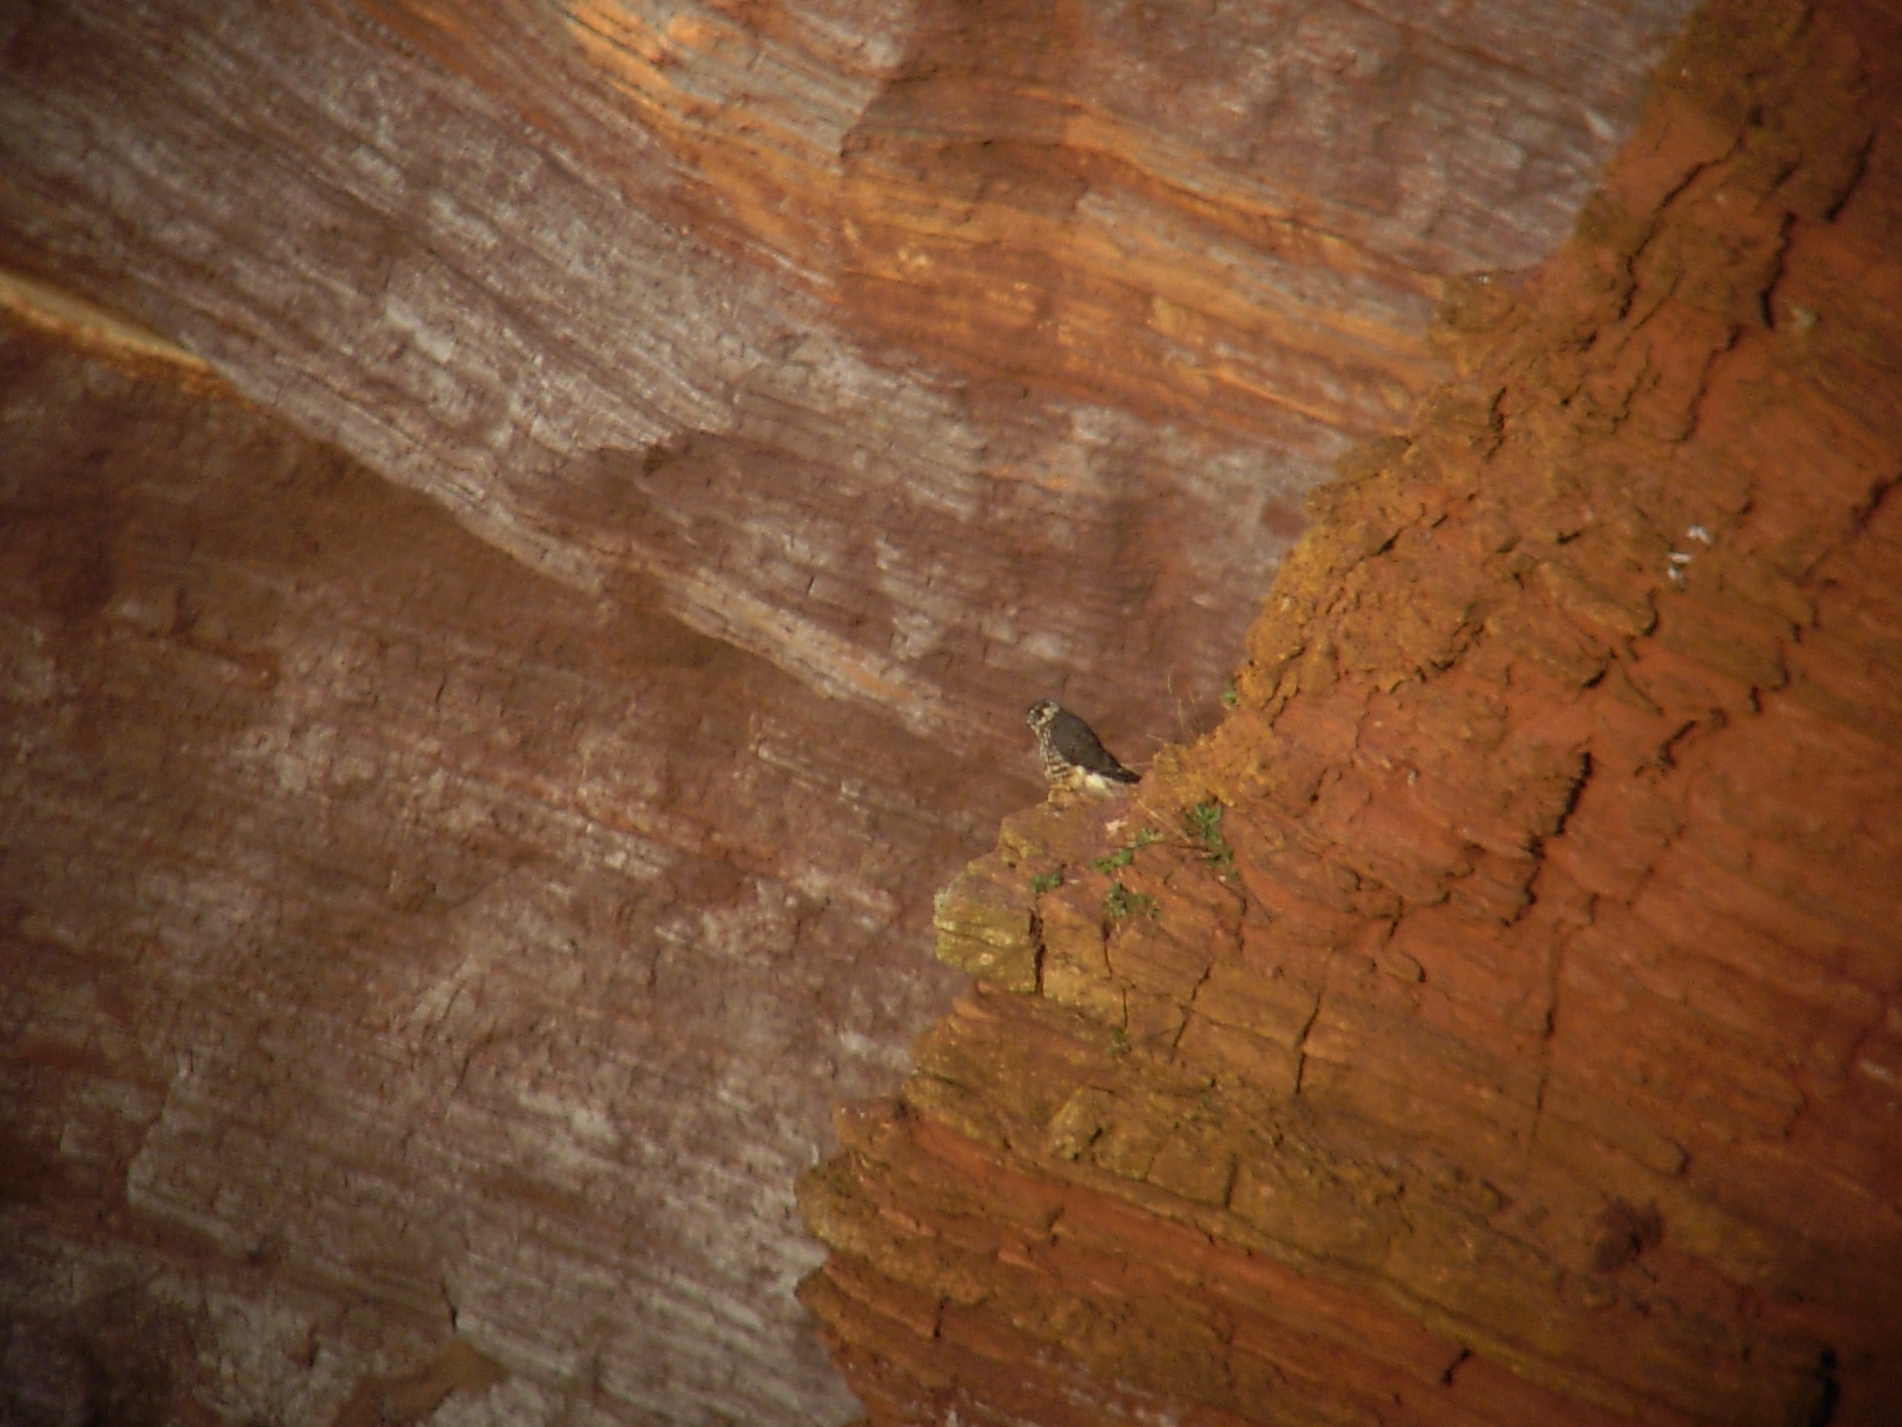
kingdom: Animalia
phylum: Chordata
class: Aves
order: Falconiformes
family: Falconidae
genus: Falco
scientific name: Falco columbarius
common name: Merlin
